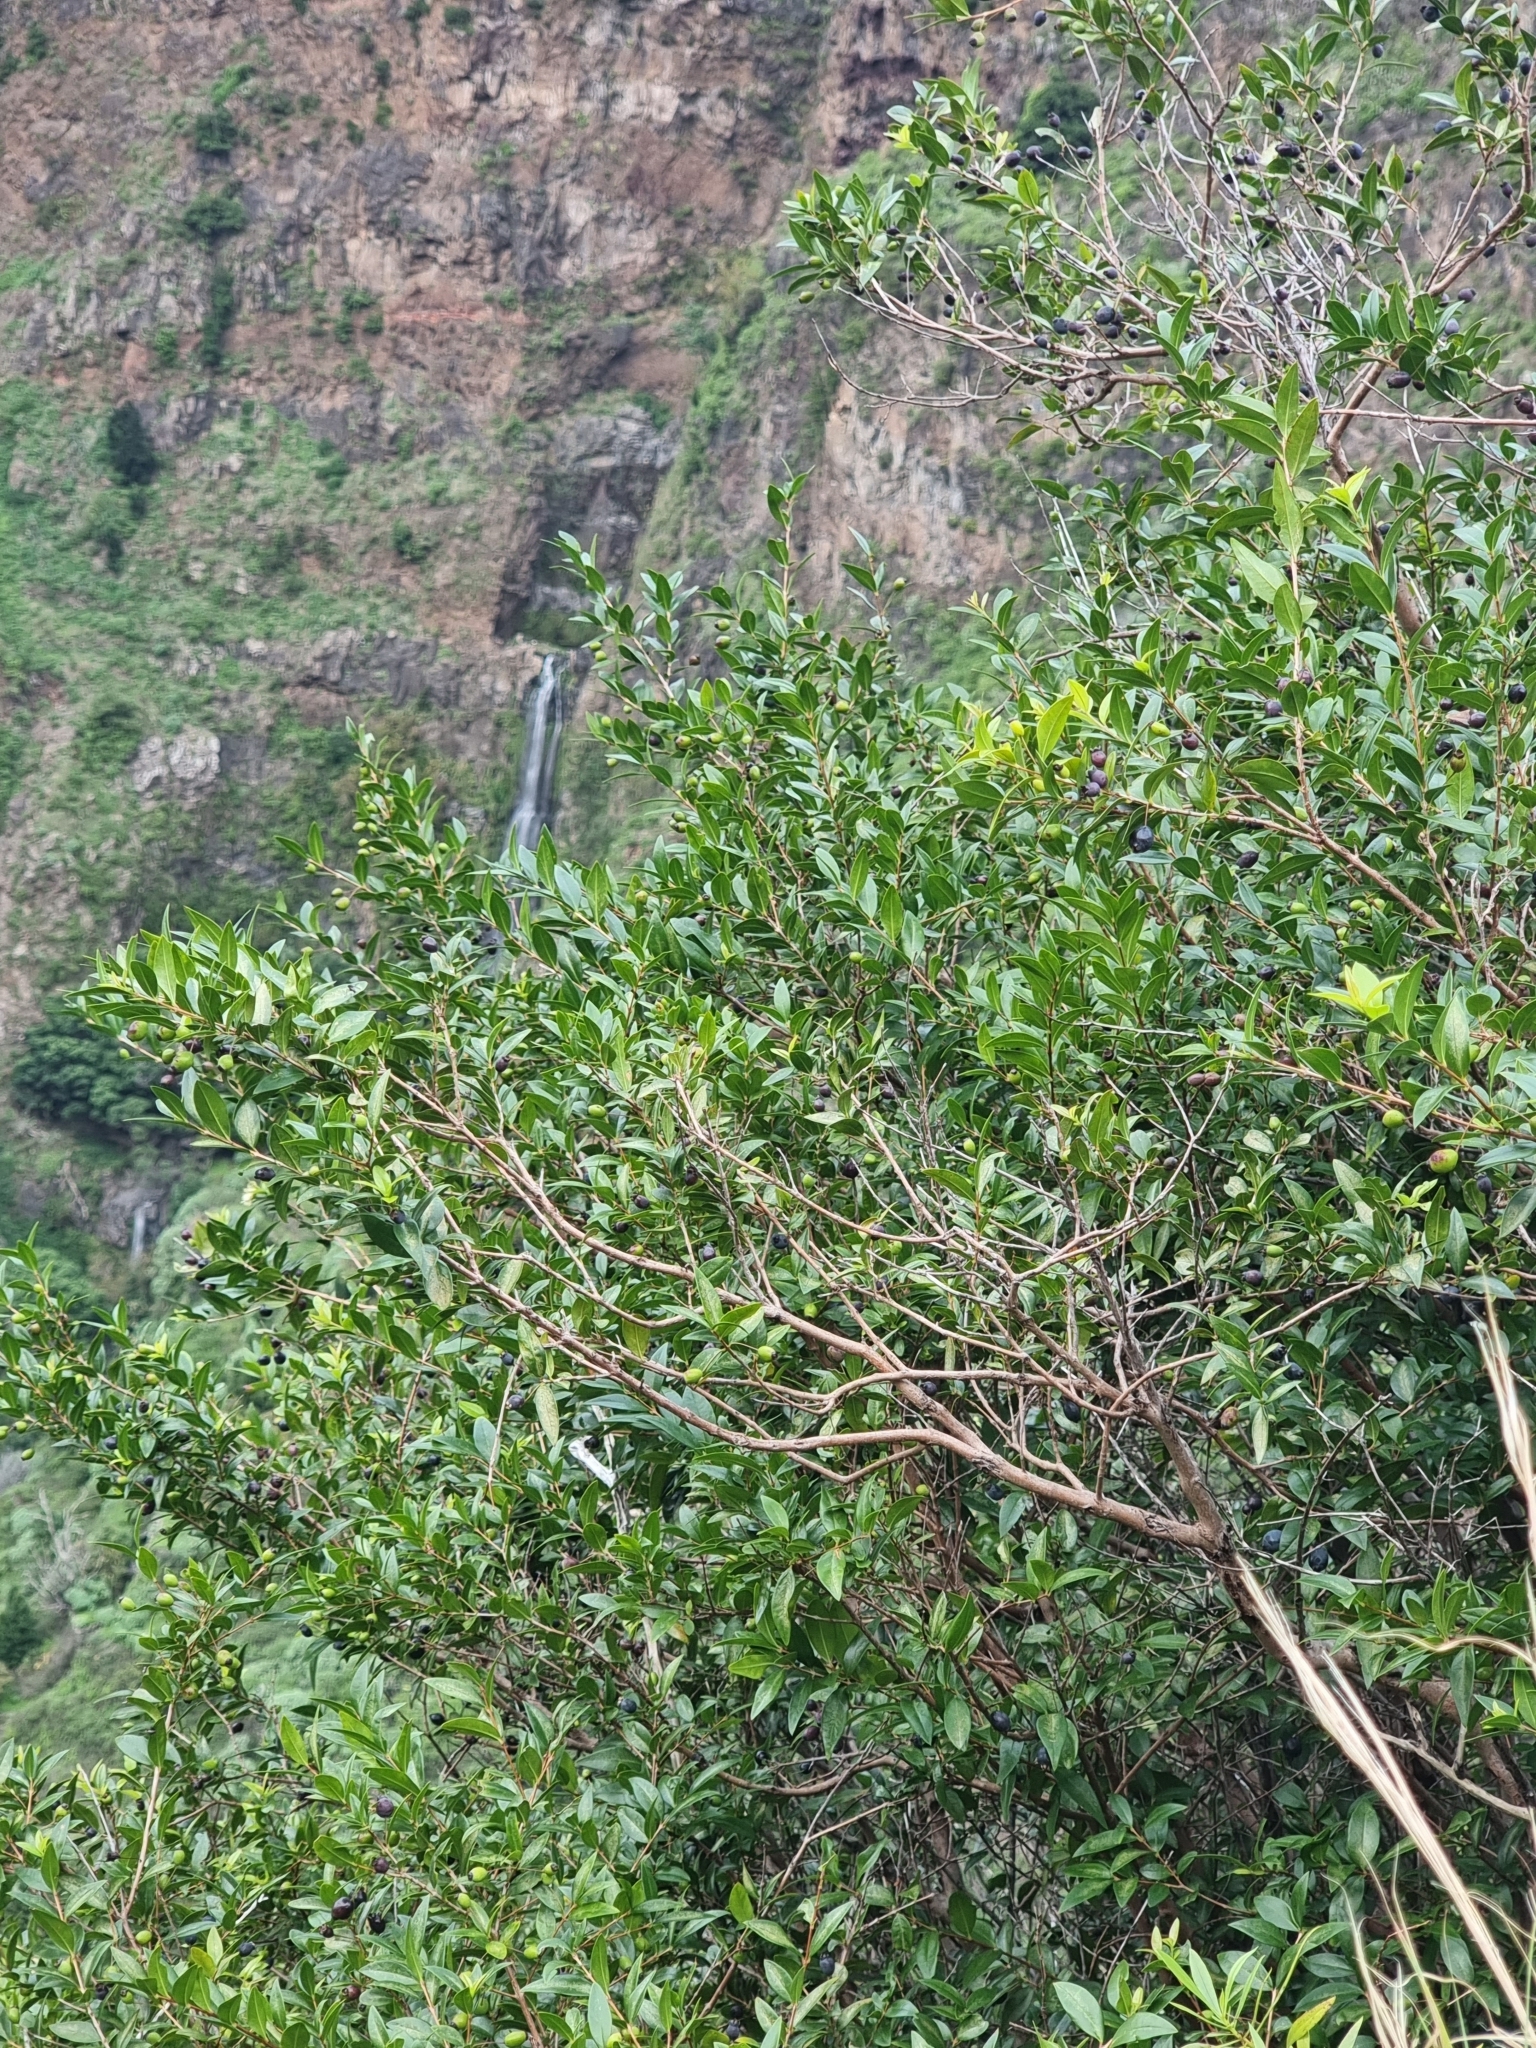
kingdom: Plantae
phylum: Tracheophyta
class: Magnoliopsida
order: Myrtales
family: Myrtaceae
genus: Myrtus
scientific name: Myrtus communis
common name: Myrtle
